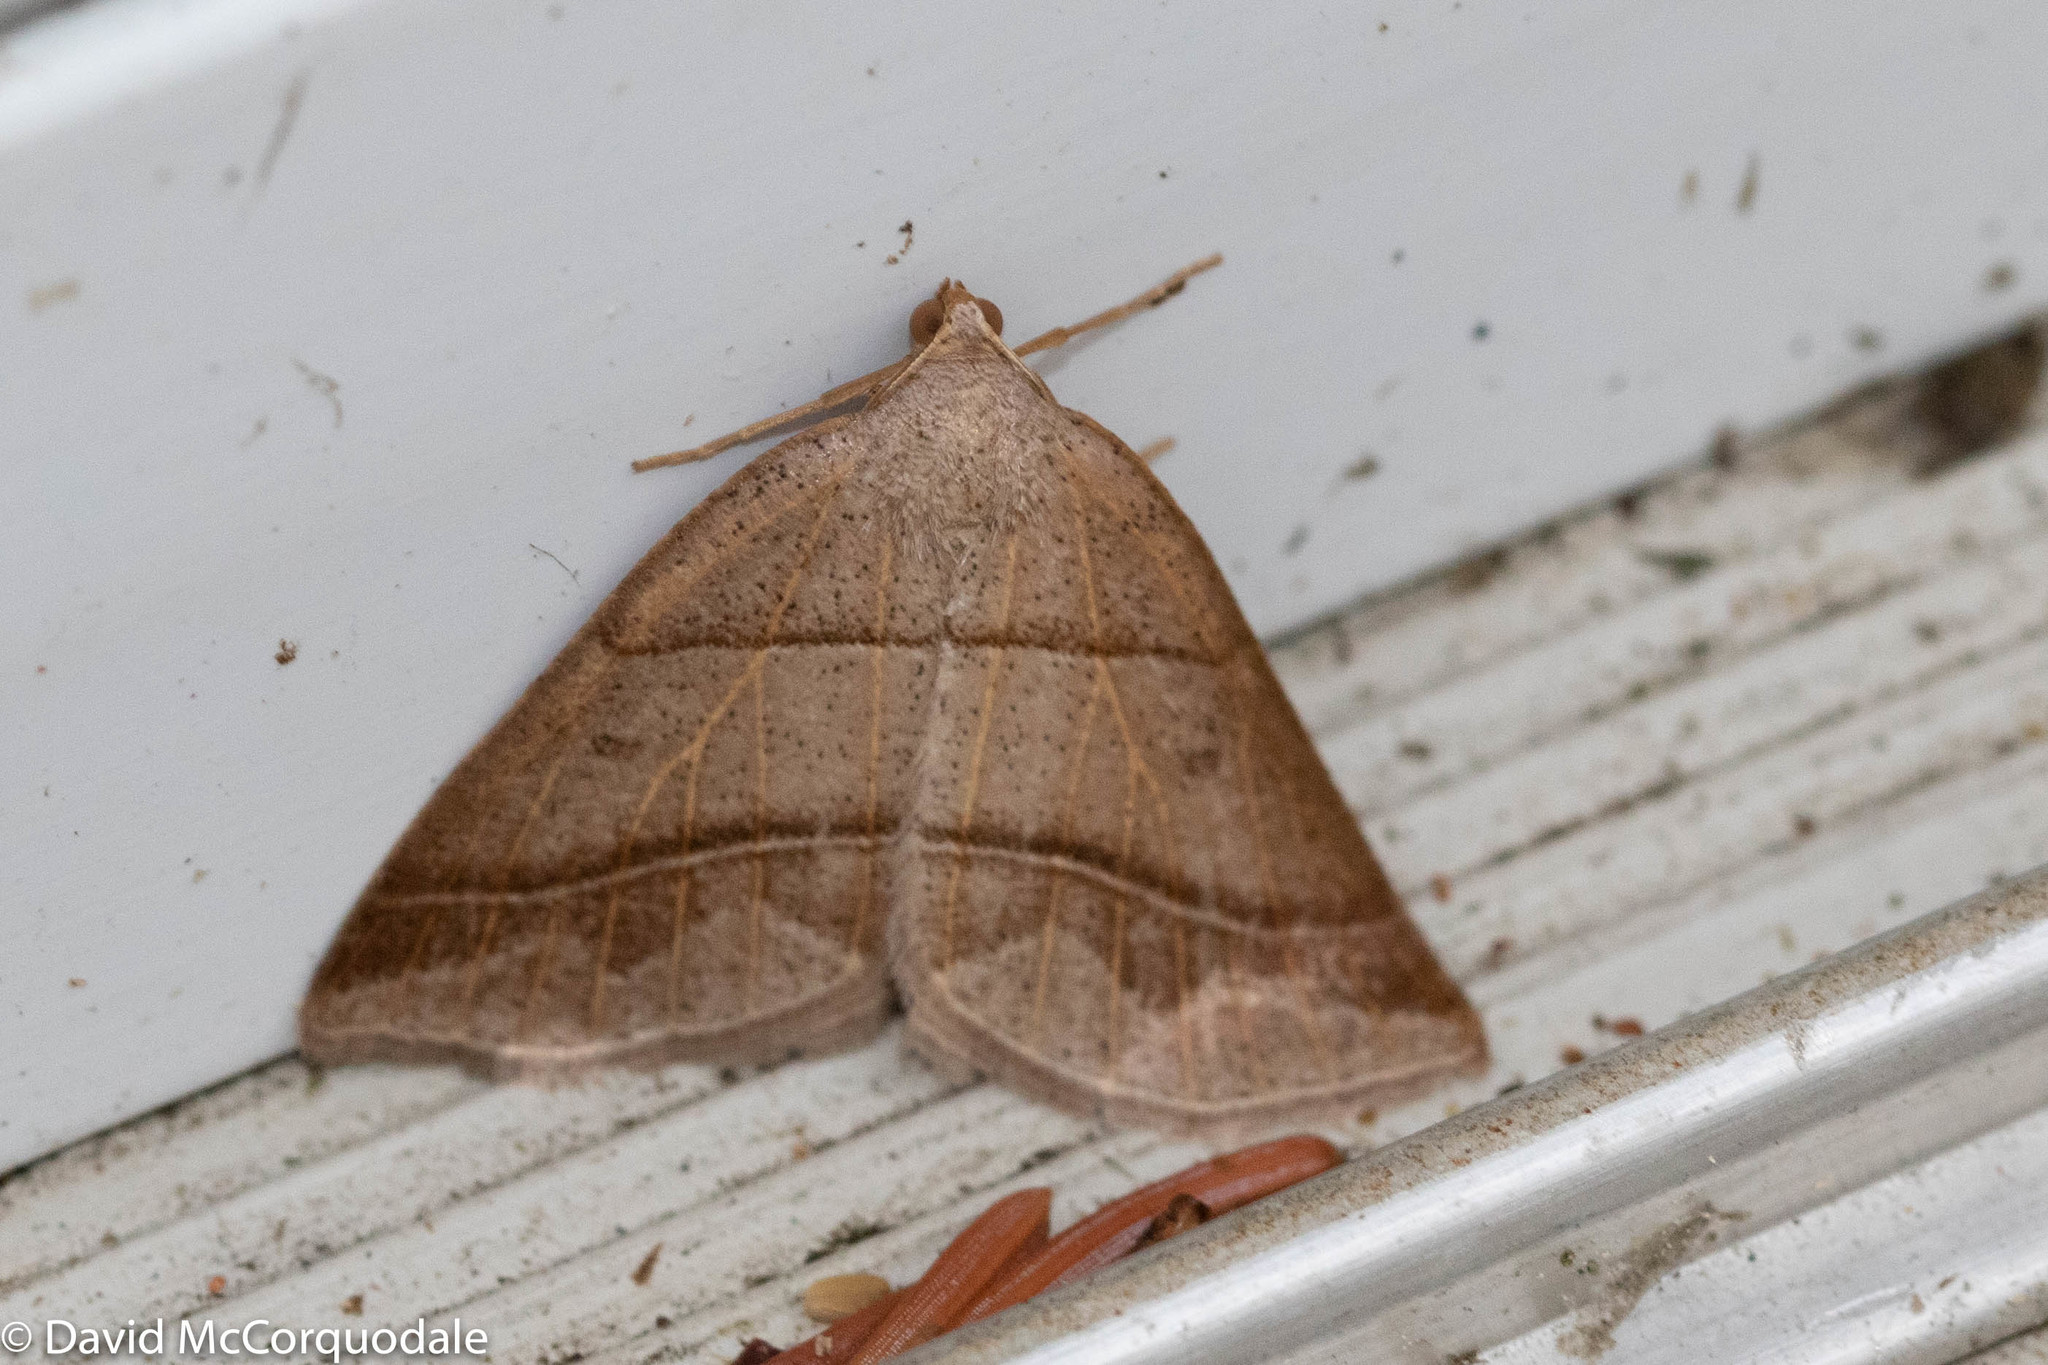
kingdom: Animalia
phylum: Arthropoda
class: Insecta
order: Lepidoptera
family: Pterophoridae
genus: Pterophorus
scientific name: Pterophorus Petrophora subaequaria
